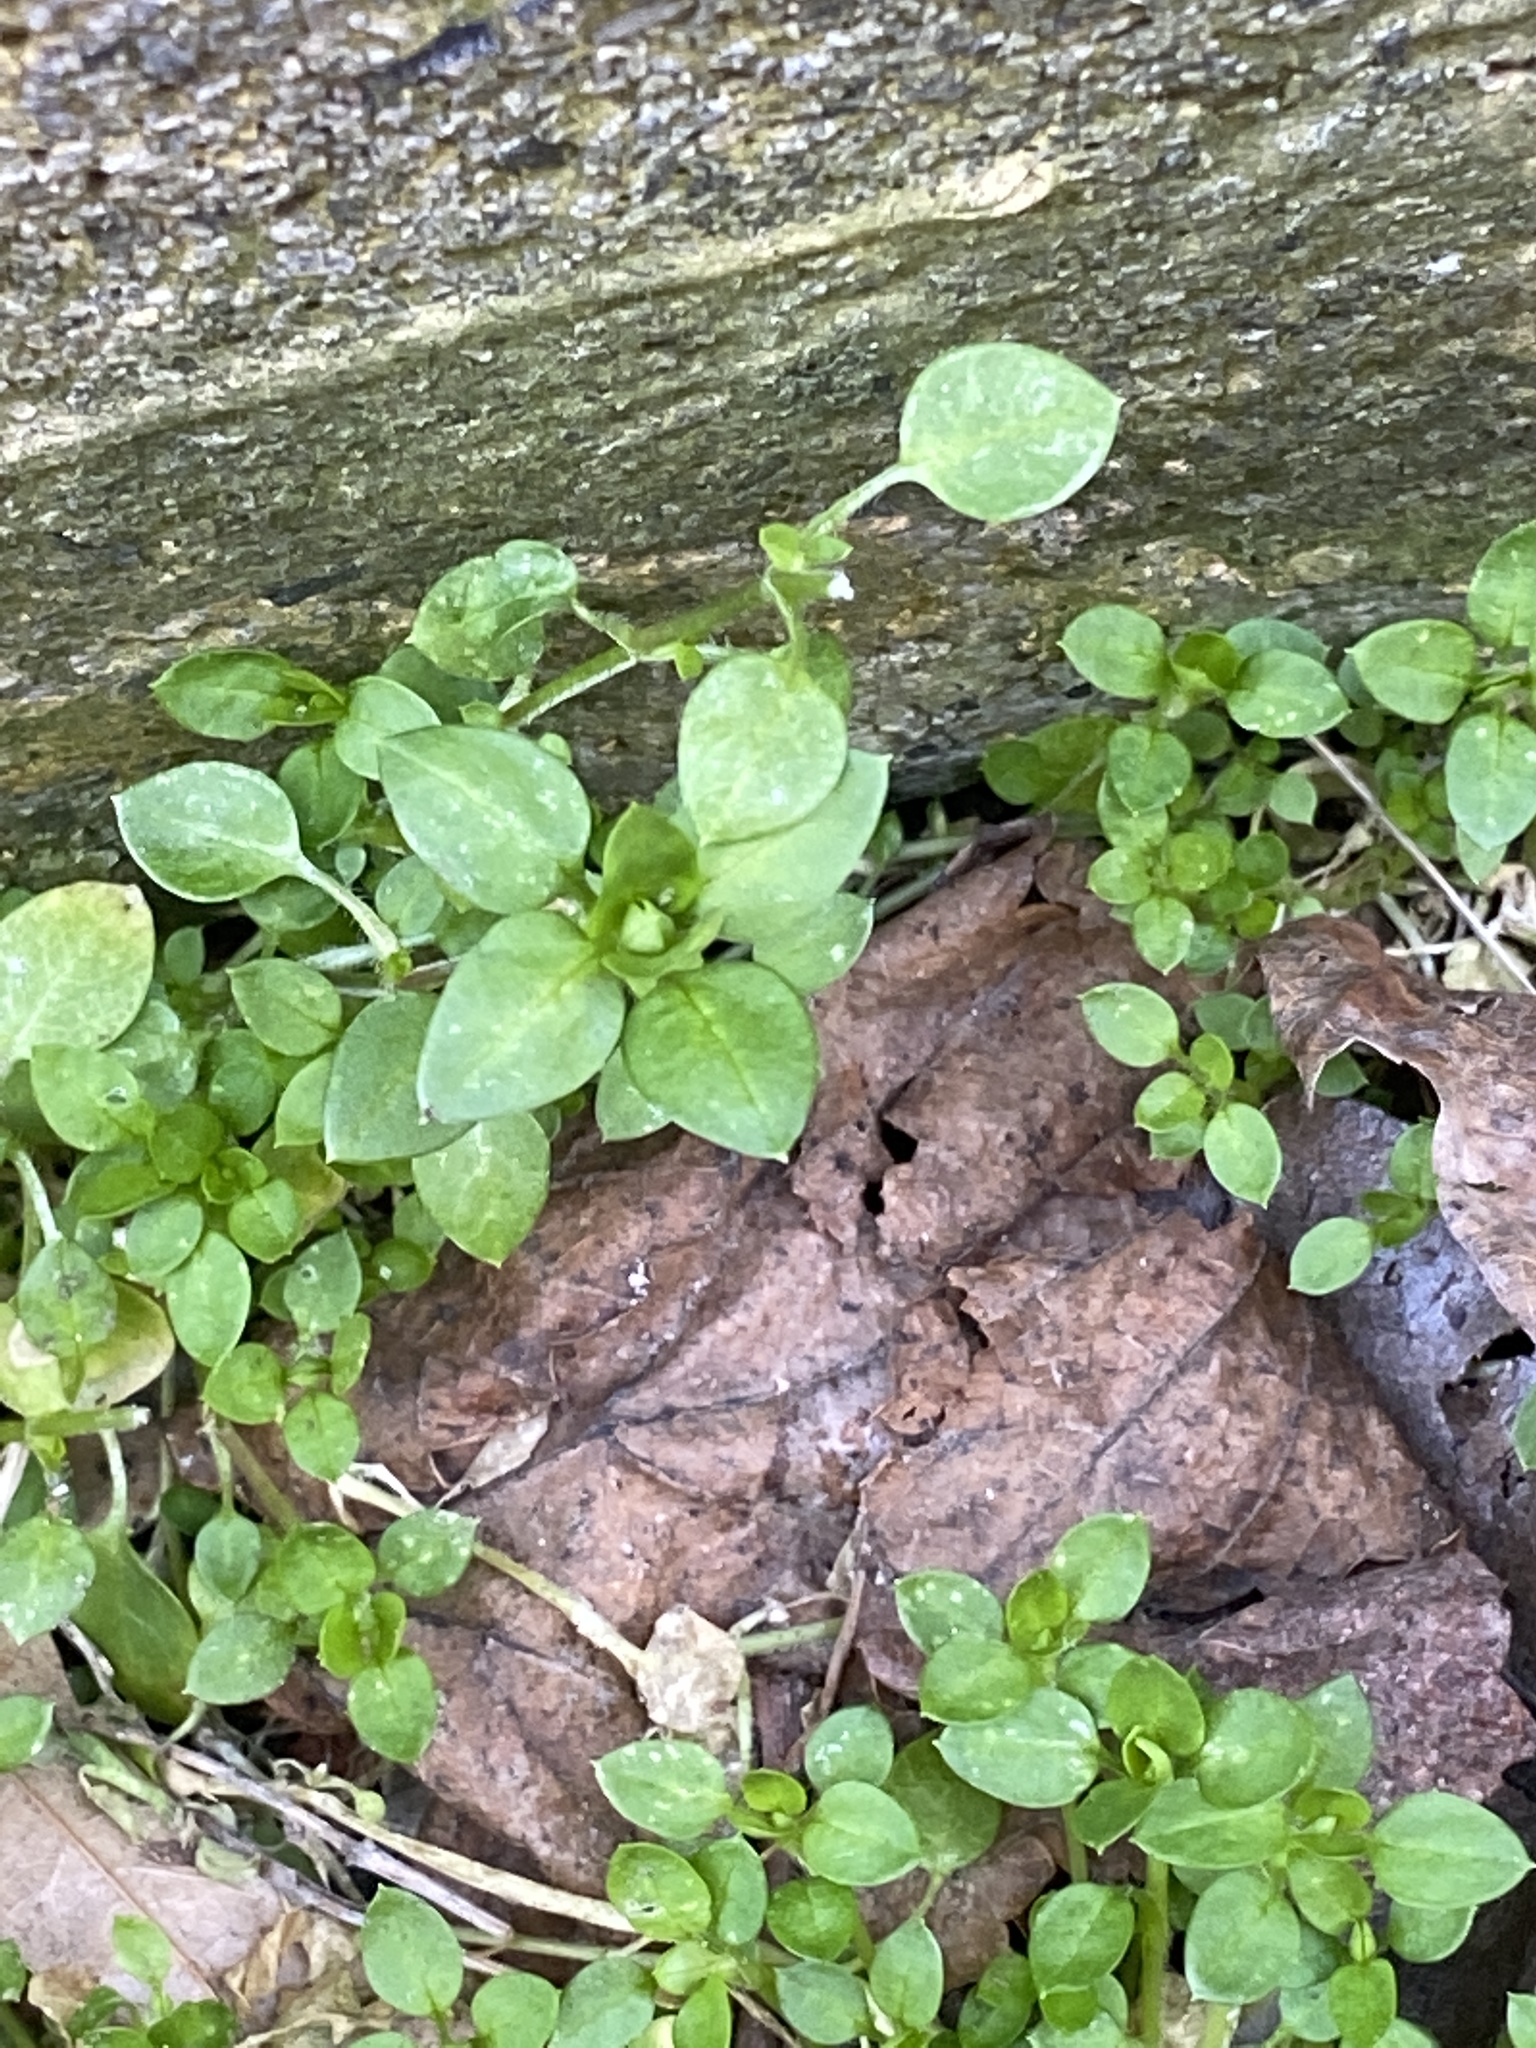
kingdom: Plantae
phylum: Tracheophyta
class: Magnoliopsida
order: Caryophyllales
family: Caryophyllaceae
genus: Stellaria
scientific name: Stellaria media
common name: Common chickweed
